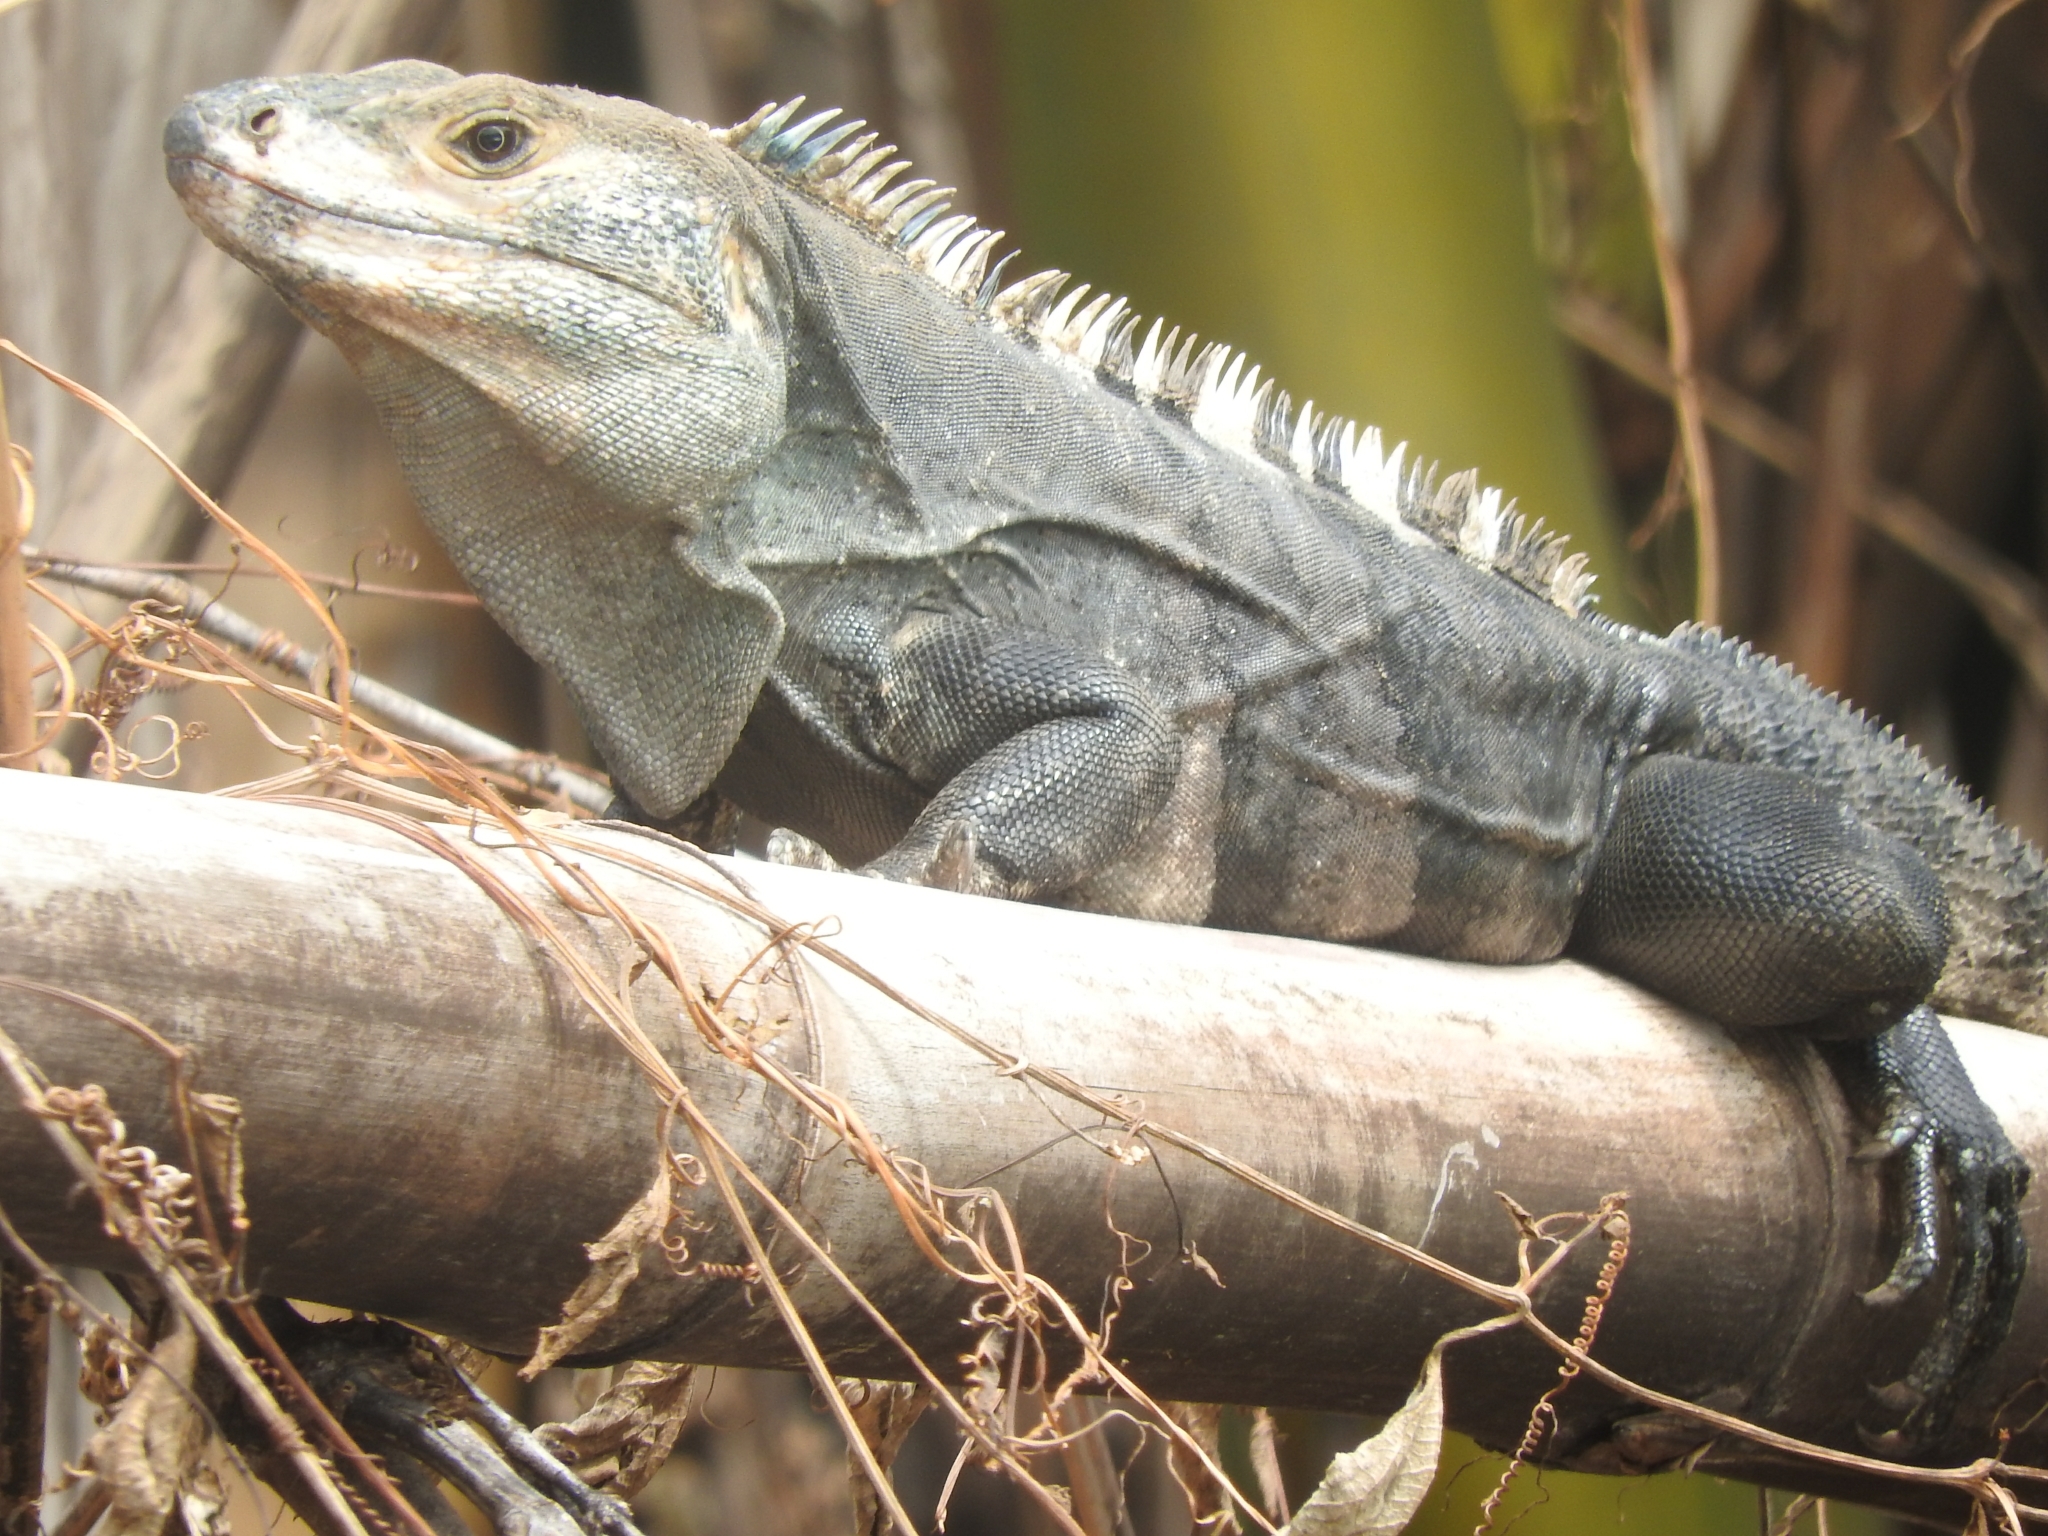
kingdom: Animalia
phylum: Chordata
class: Squamata
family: Iguanidae
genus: Ctenosaura
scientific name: Ctenosaura similis
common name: Black spiny-tailed iguana
